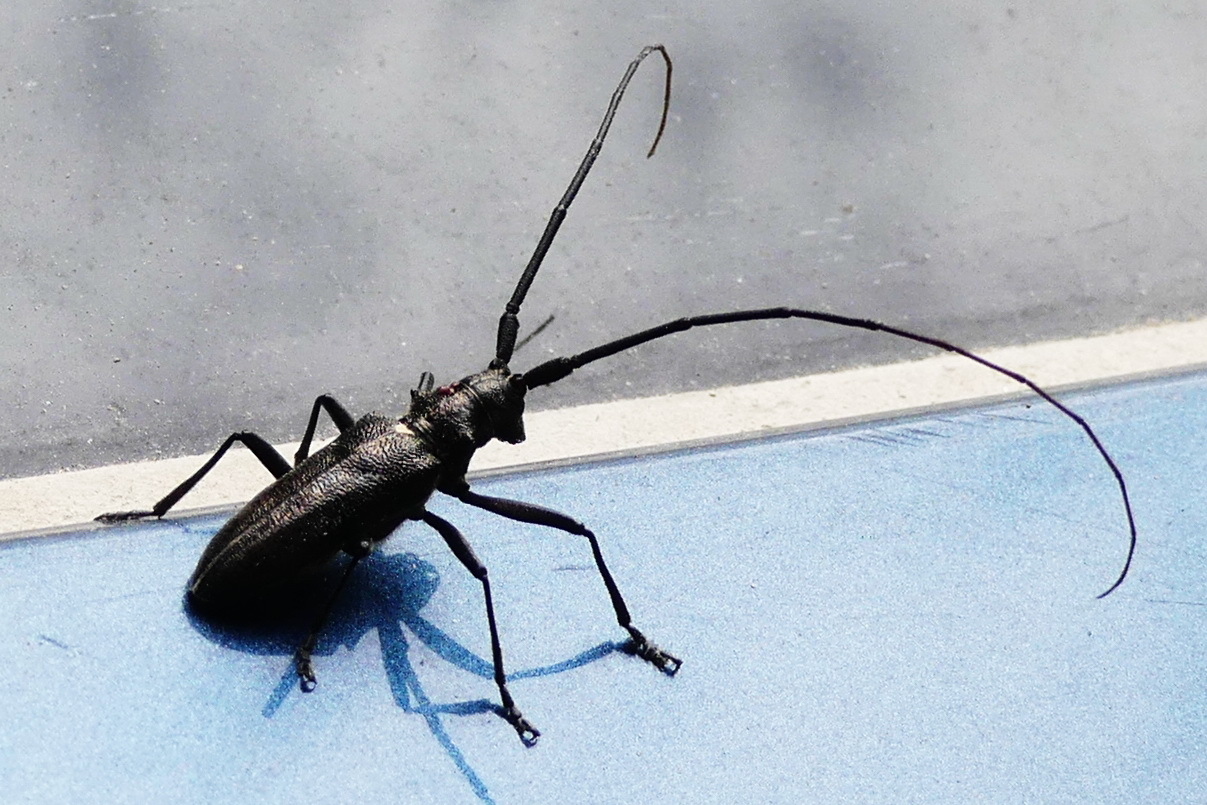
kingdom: Animalia
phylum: Arthropoda
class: Insecta
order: Coleoptera
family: Cerambycidae
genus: Monochamus
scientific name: Monochamus scutellatus
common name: White-spotted sawyer beetle
